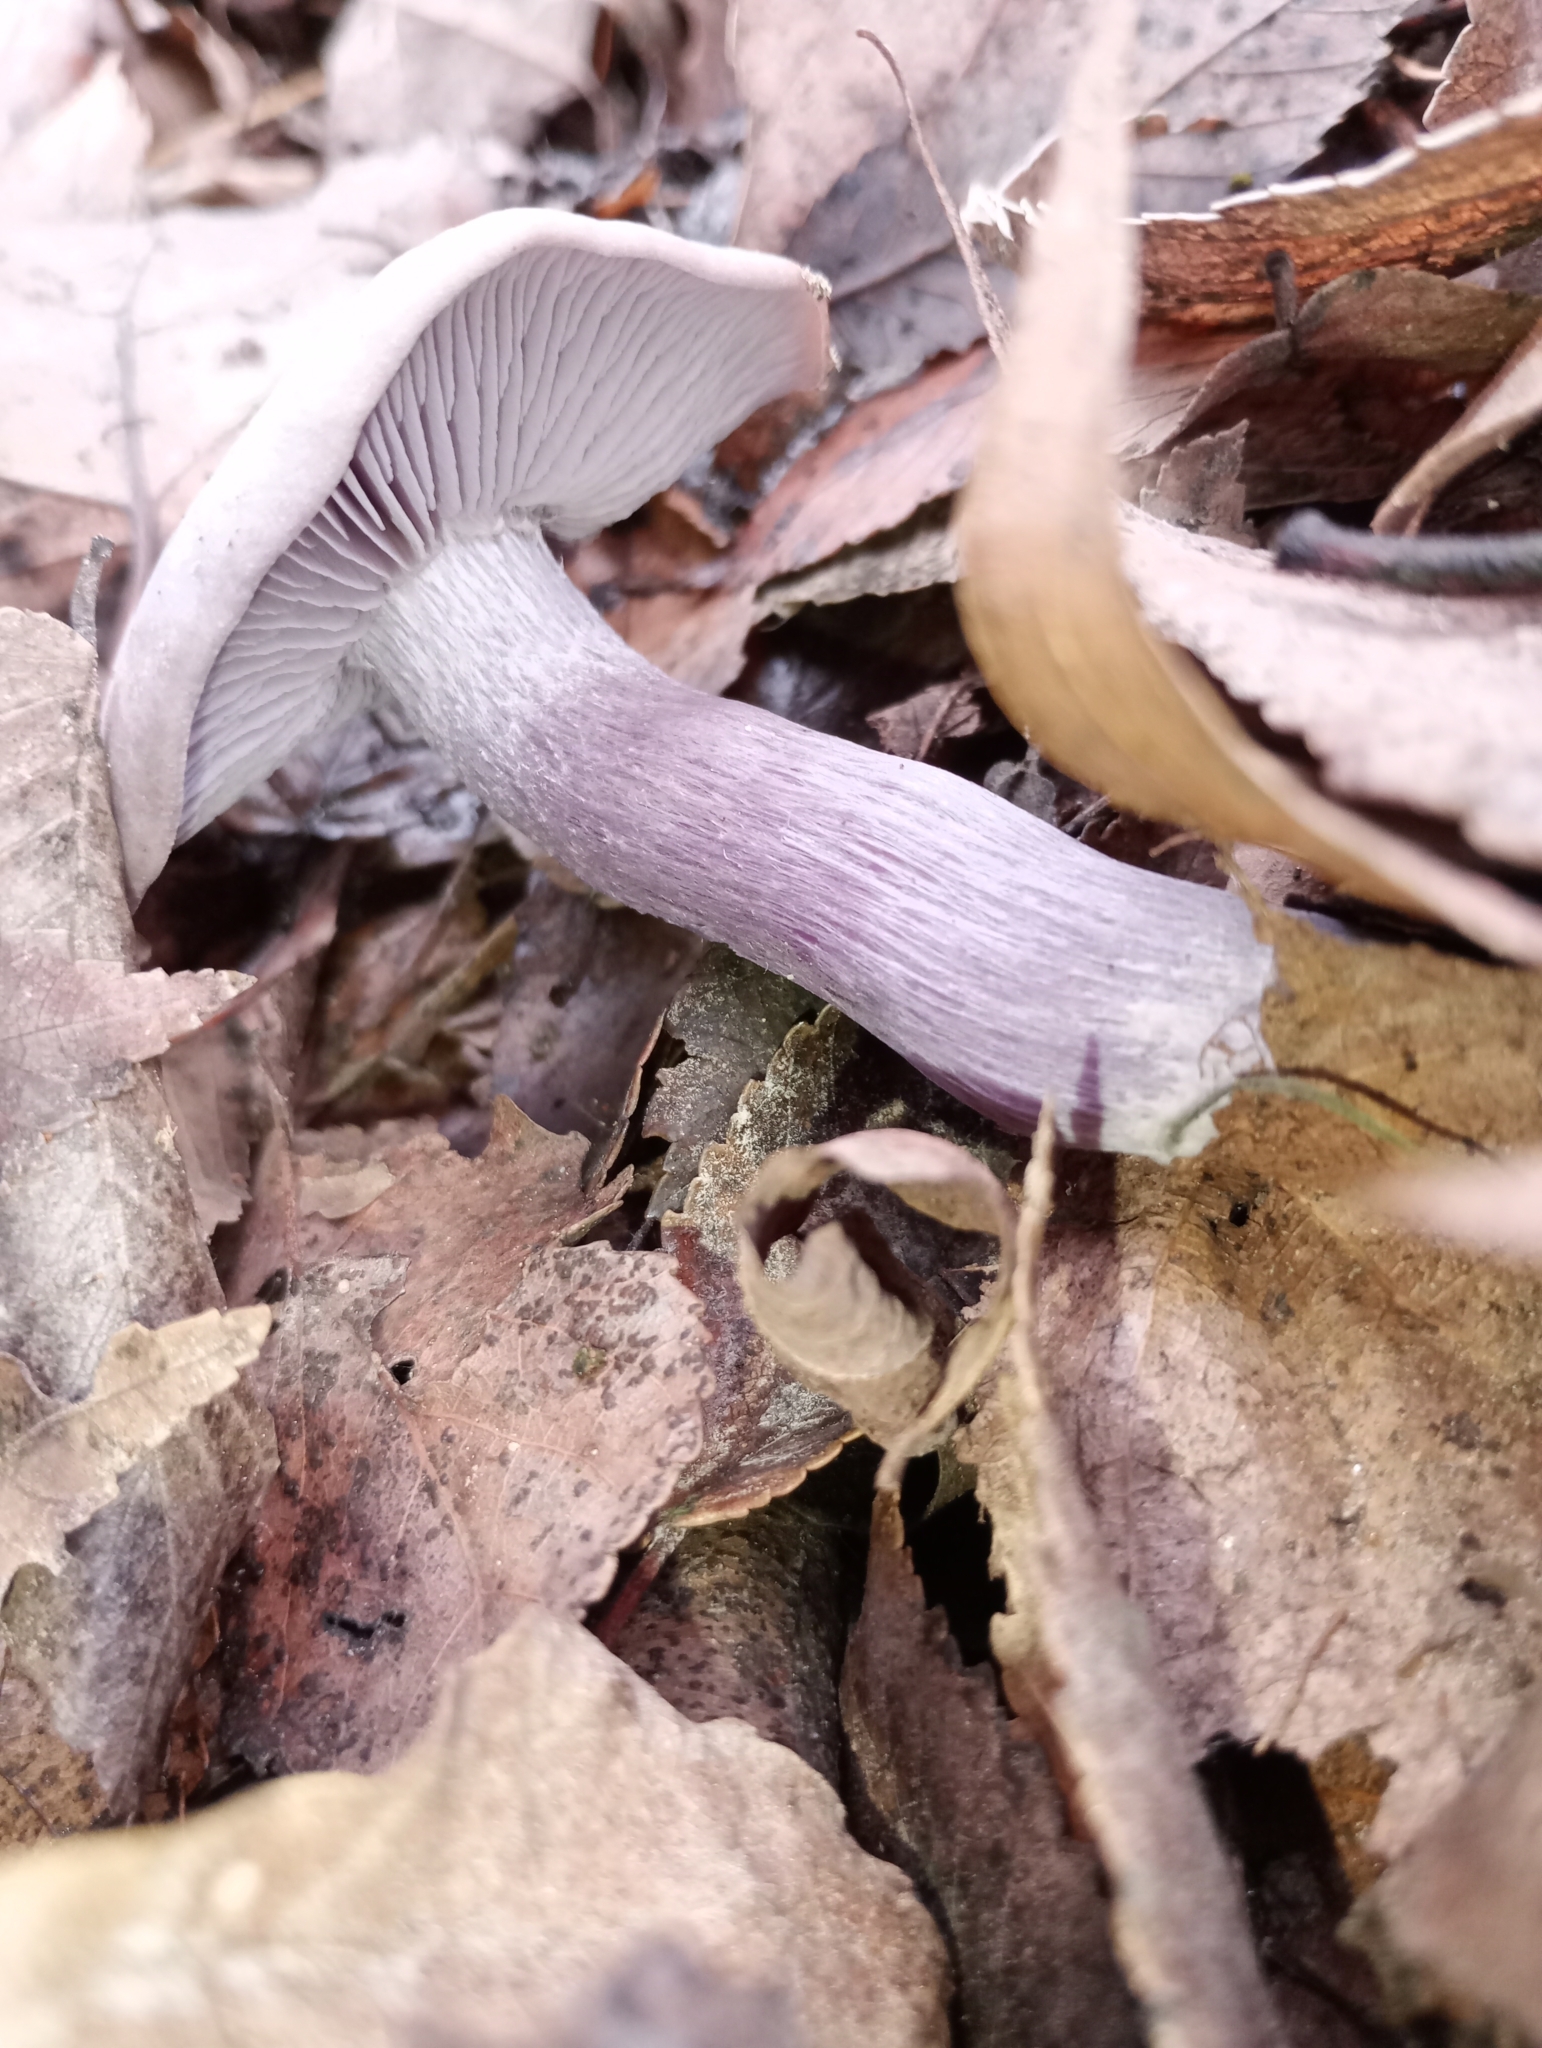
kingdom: Fungi
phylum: Basidiomycota
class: Agaricomycetes
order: Agaricales
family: Tricholomataceae
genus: Collybia
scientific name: Collybia
